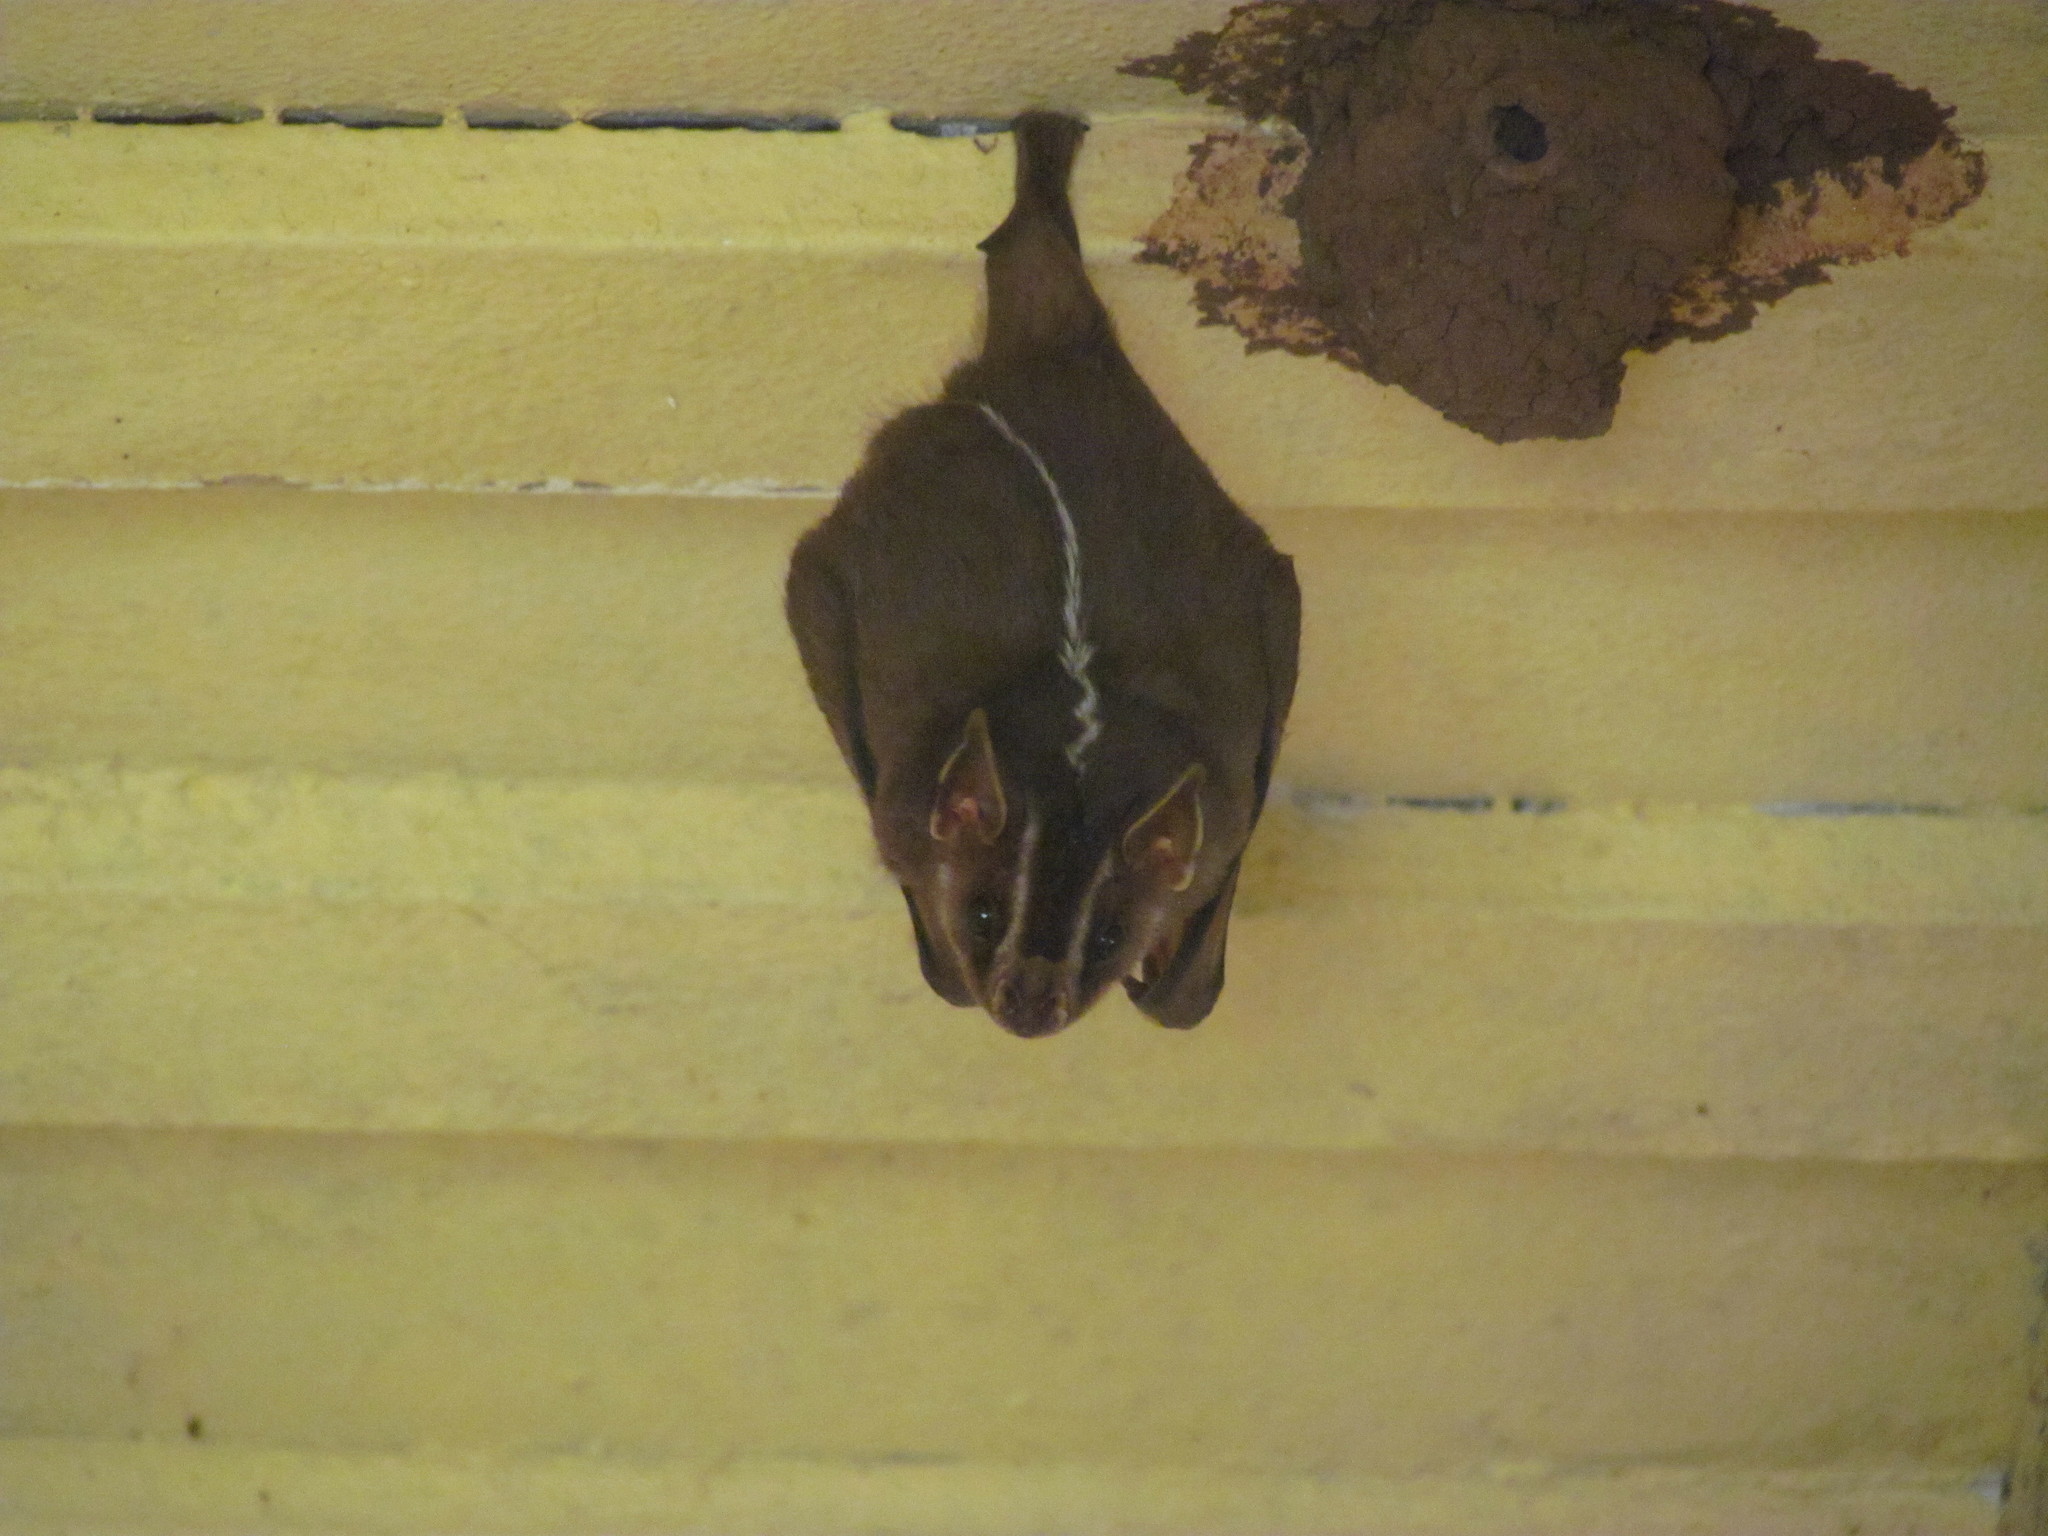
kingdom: Animalia
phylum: Chordata
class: Mammalia
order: Chiroptera
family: Phyllostomidae
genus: Platyrrhinus
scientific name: Platyrrhinus lineatus
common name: White-lined broad-nosed bat
